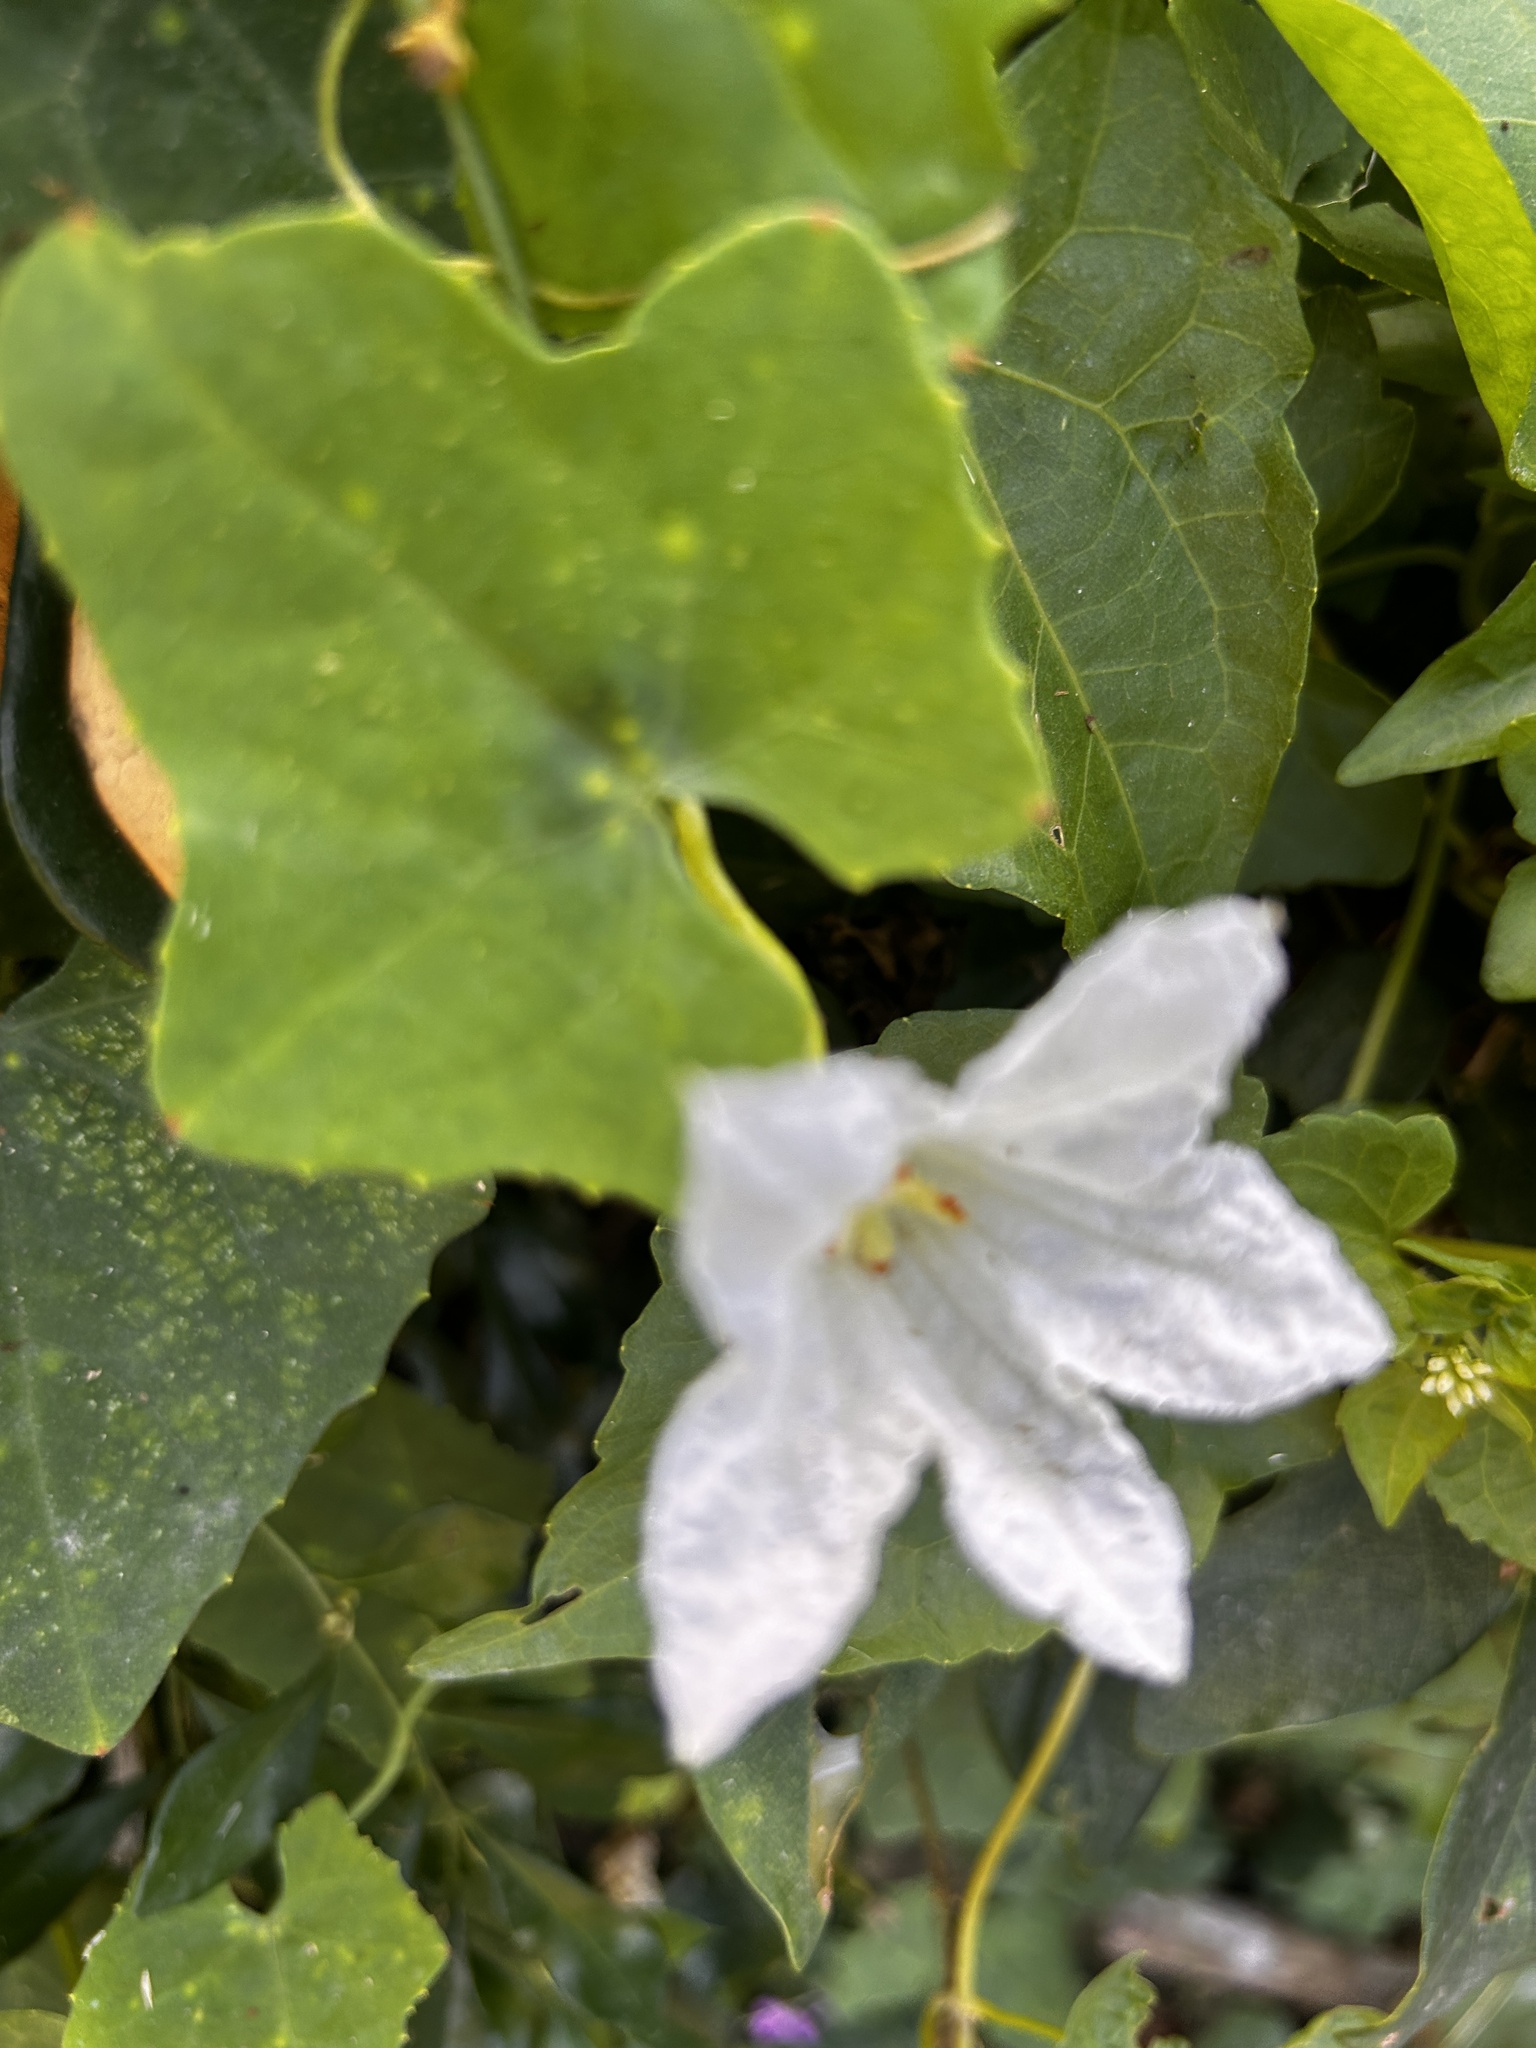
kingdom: Plantae
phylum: Tracheophyta
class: Magnoliopsida
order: Cucurbitales
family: Cucurbitaceae
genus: Coccinia
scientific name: Coccinia grandis
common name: Ivy gourd
